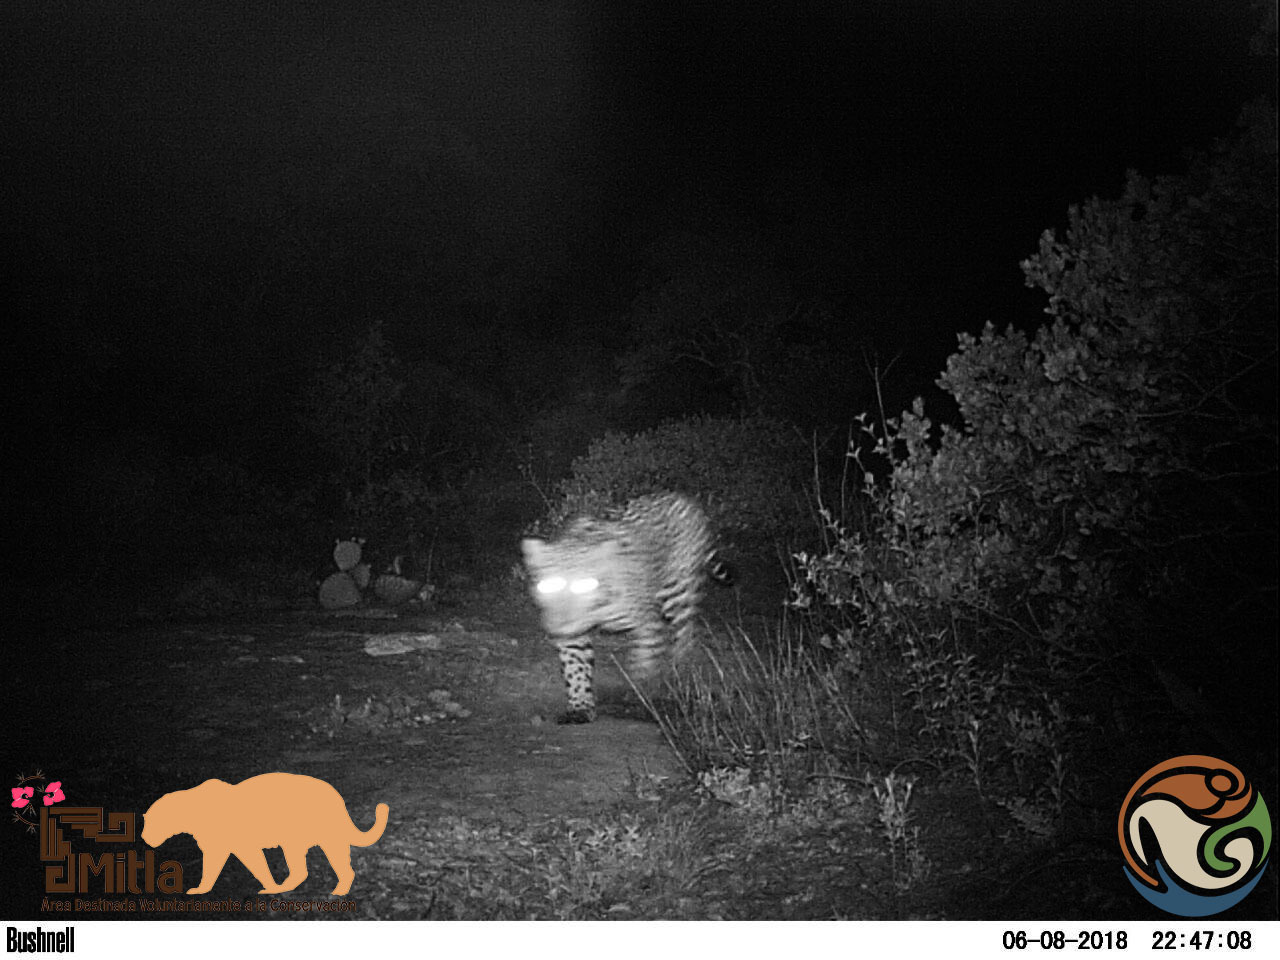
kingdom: Animalia
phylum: Chordata
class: Mammalia
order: Carnivora
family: Felidae
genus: Panthera
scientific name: Panthera onca
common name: Jaguar
